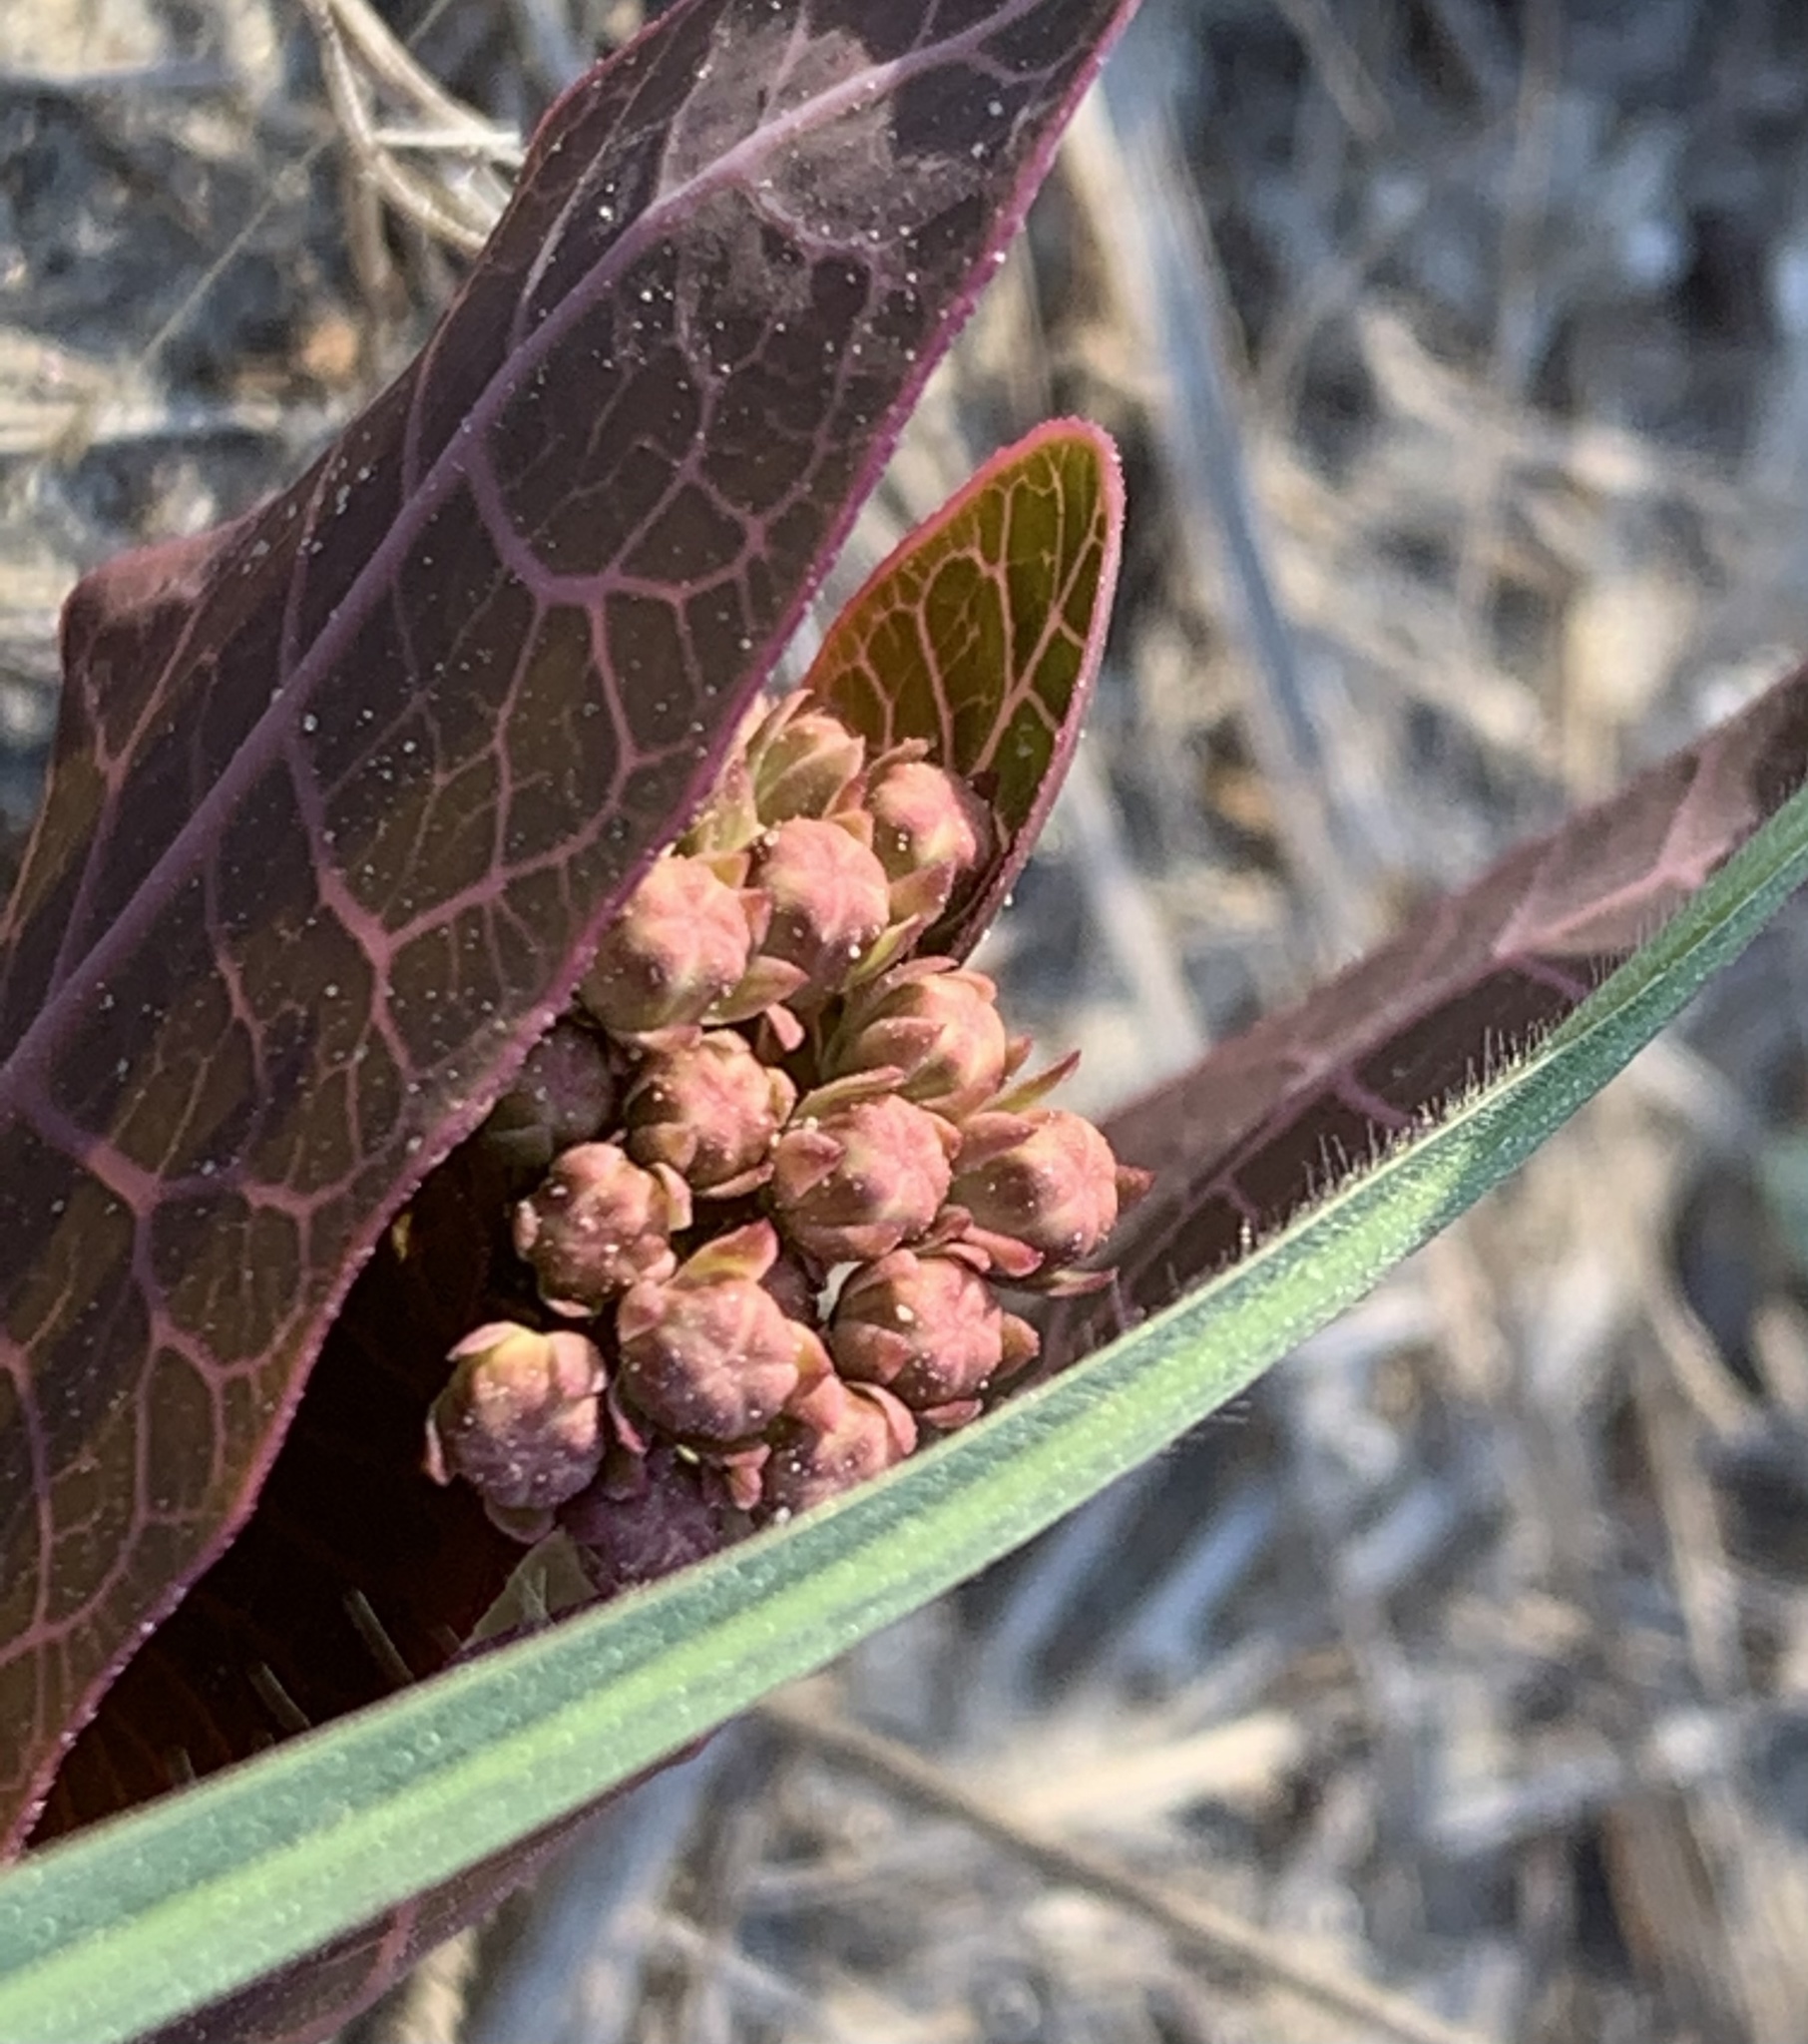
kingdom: Plantae
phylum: Tracheophyta
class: Magnoliopsida
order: Gentianales
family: Apocynaceae
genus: Asclepias
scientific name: Asclepias humistrata
